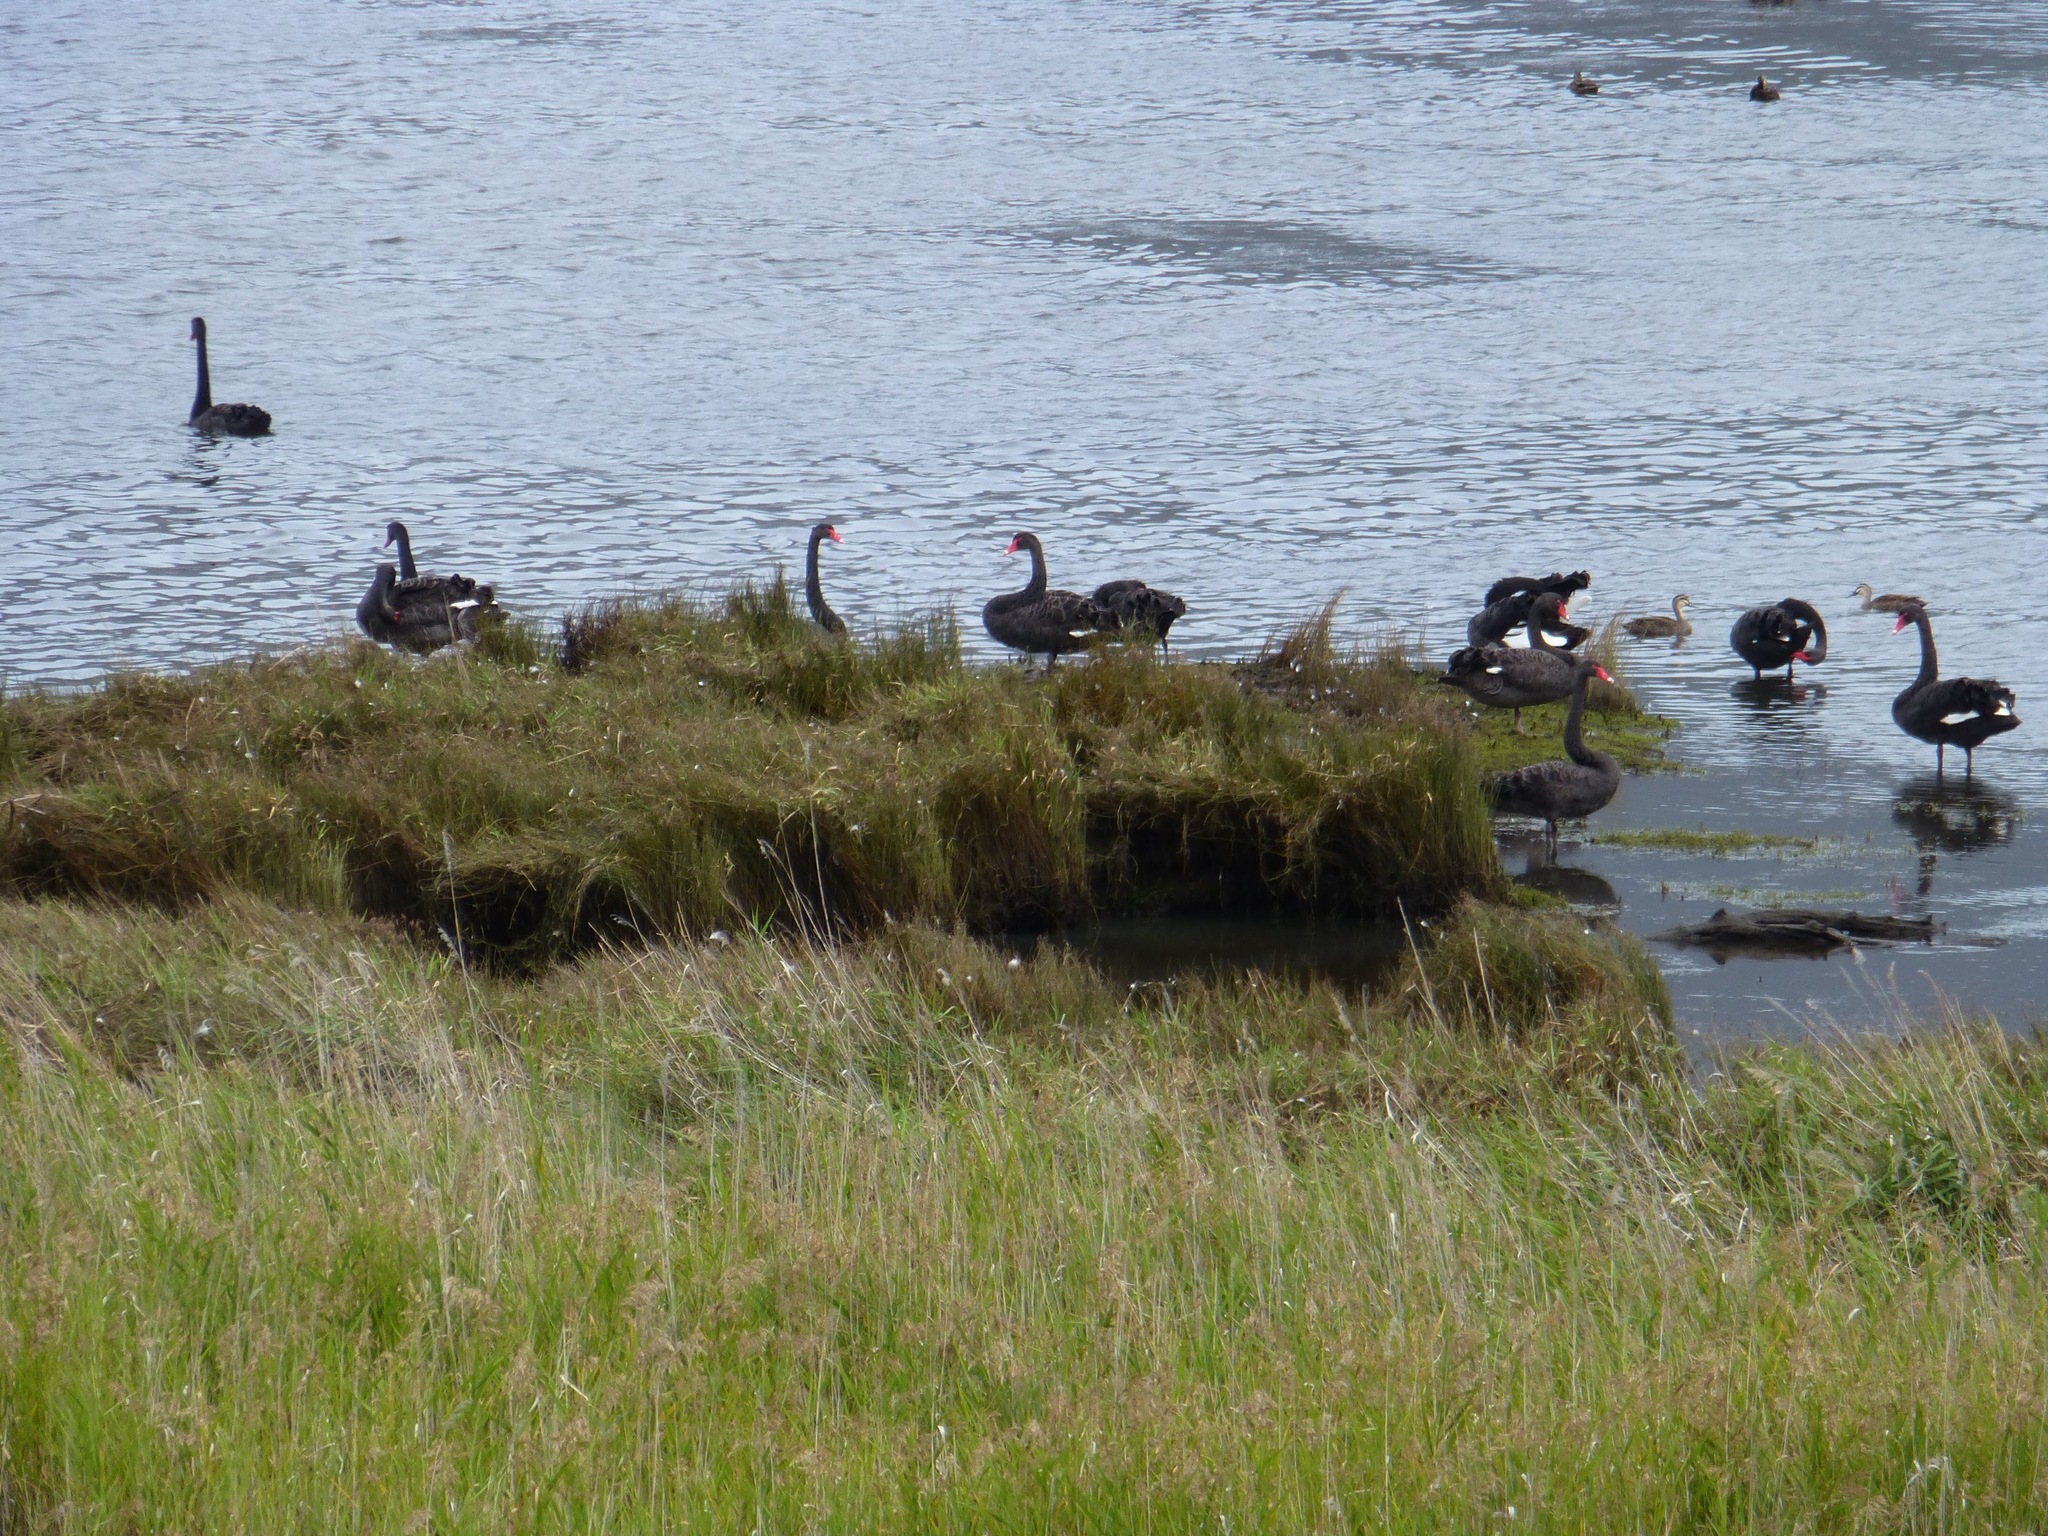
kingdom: Animalia
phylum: Chordata
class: Aves
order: Anseriformes
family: Anatidae
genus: Cygnus
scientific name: Cygnus atratus
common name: Black swan
